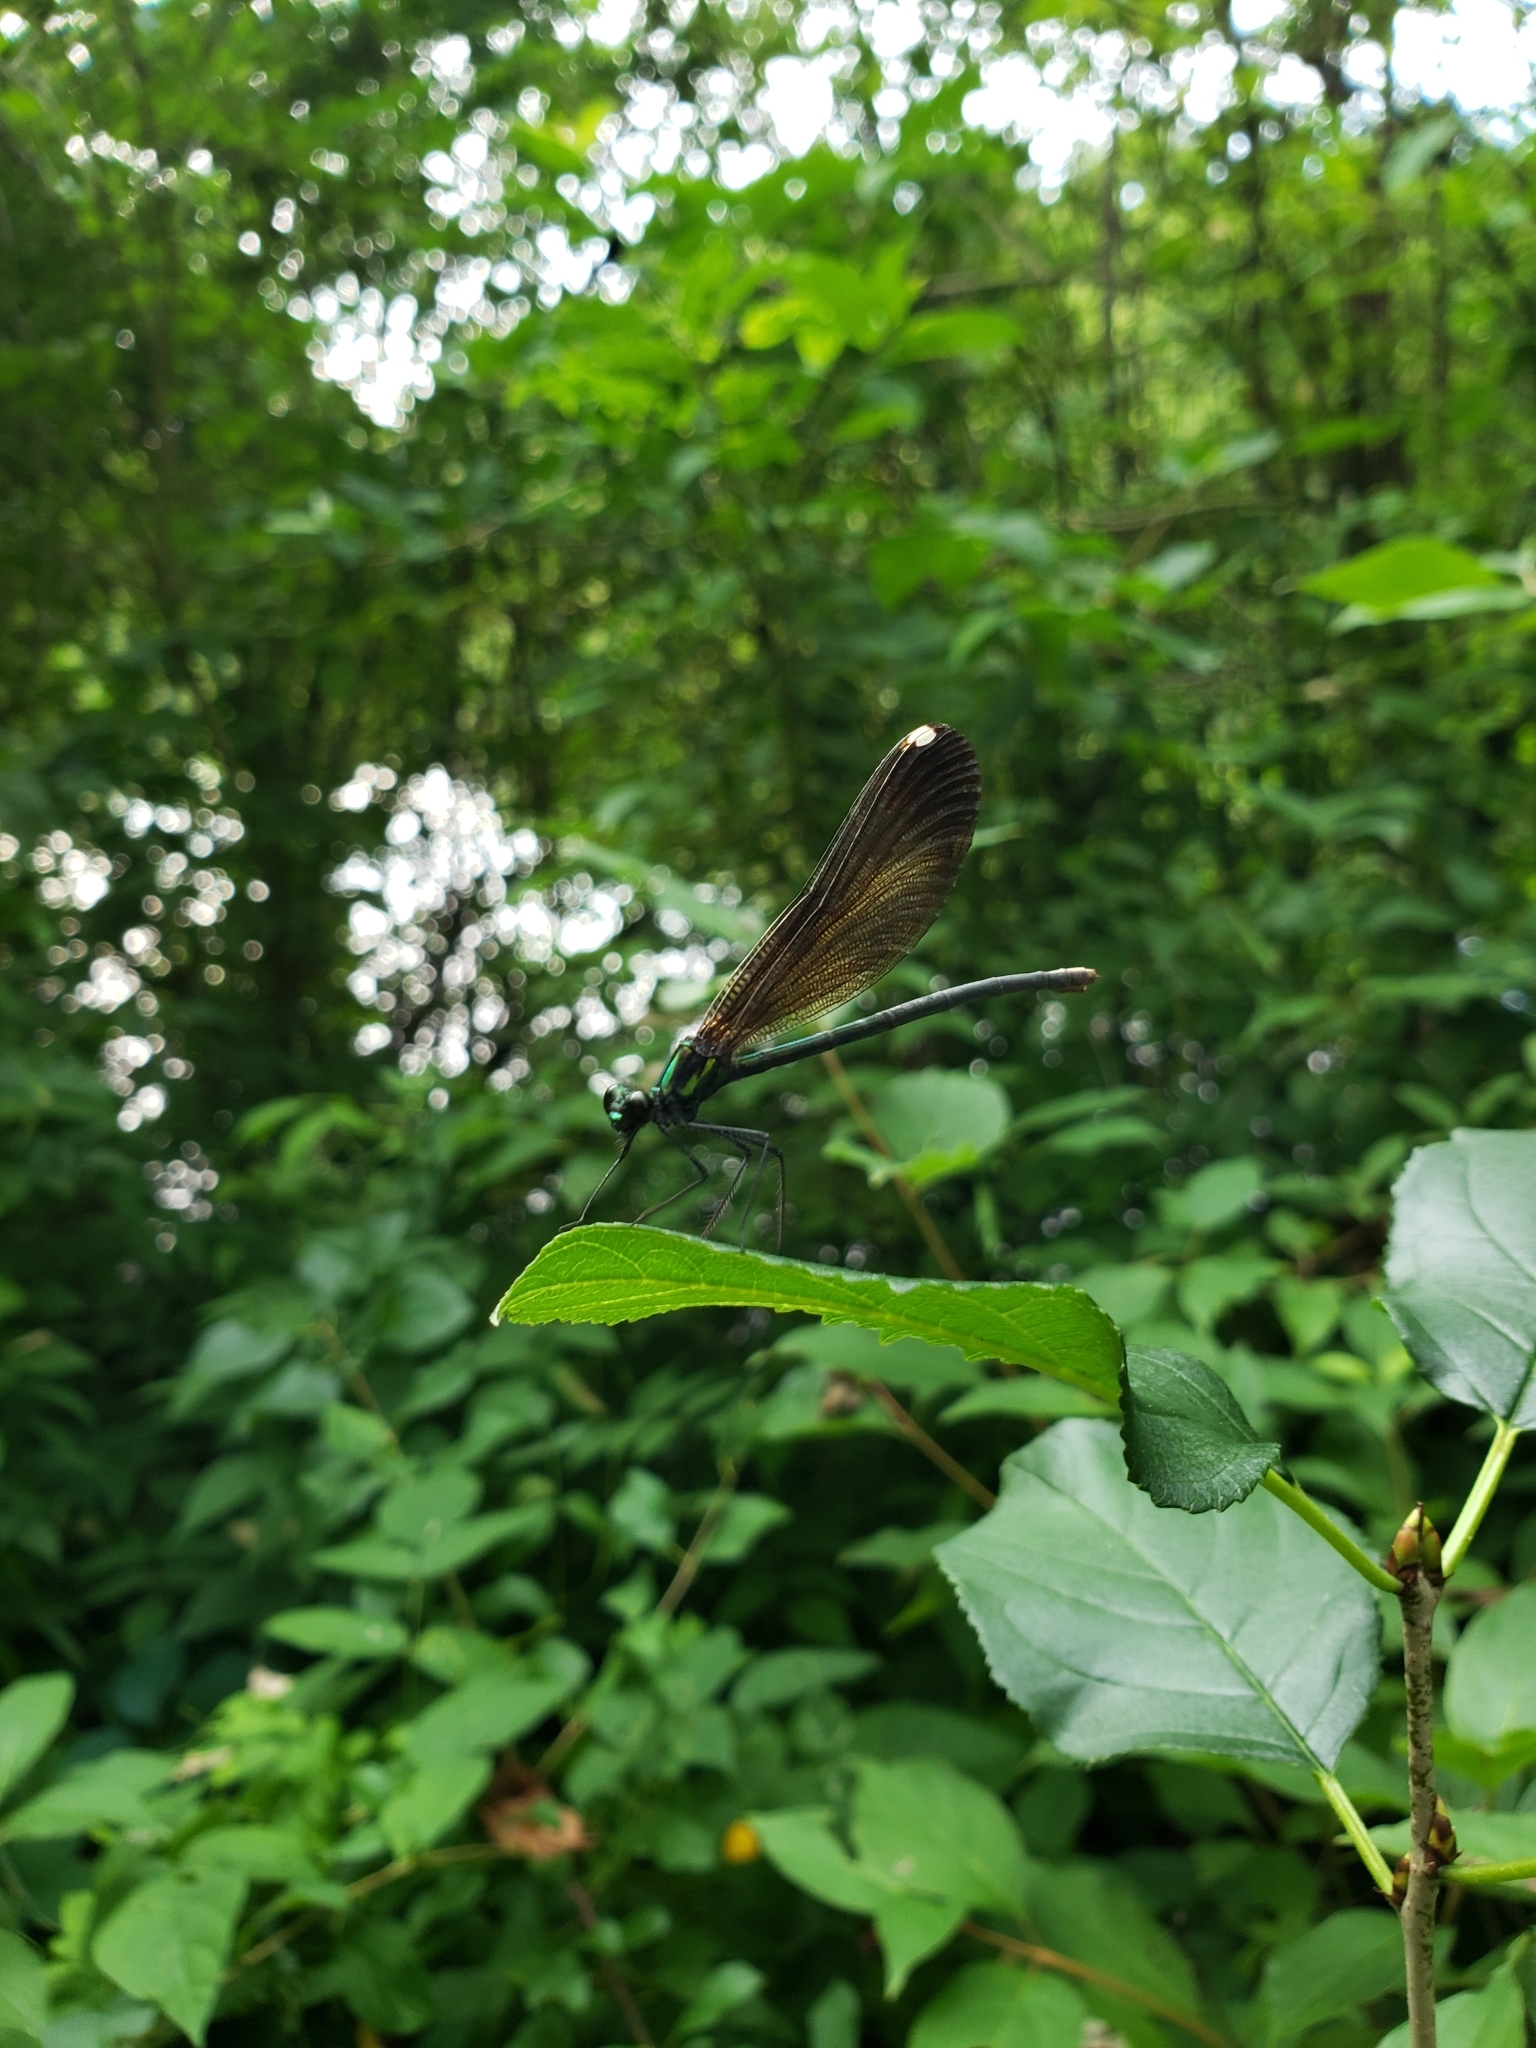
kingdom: Animalia
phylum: Arthropoda
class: Insecta
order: Odonata
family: Calopterygidae
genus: Calopteryx
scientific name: Calopteryx maculata
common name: Ebony jewelwing
